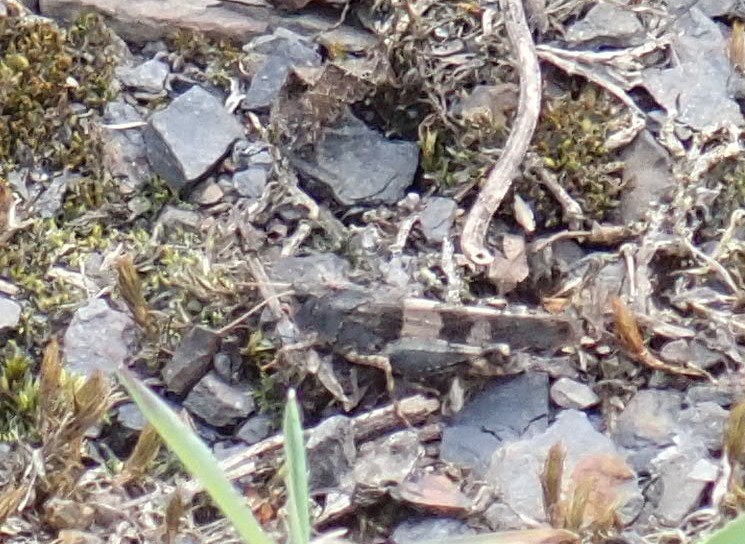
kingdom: Animalia
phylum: Arthropoda
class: Insecta
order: Orthoptera
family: Acrididae
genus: Oedipoda
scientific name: Oedipoda caerulescens
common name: Blue-winged grasshopper
